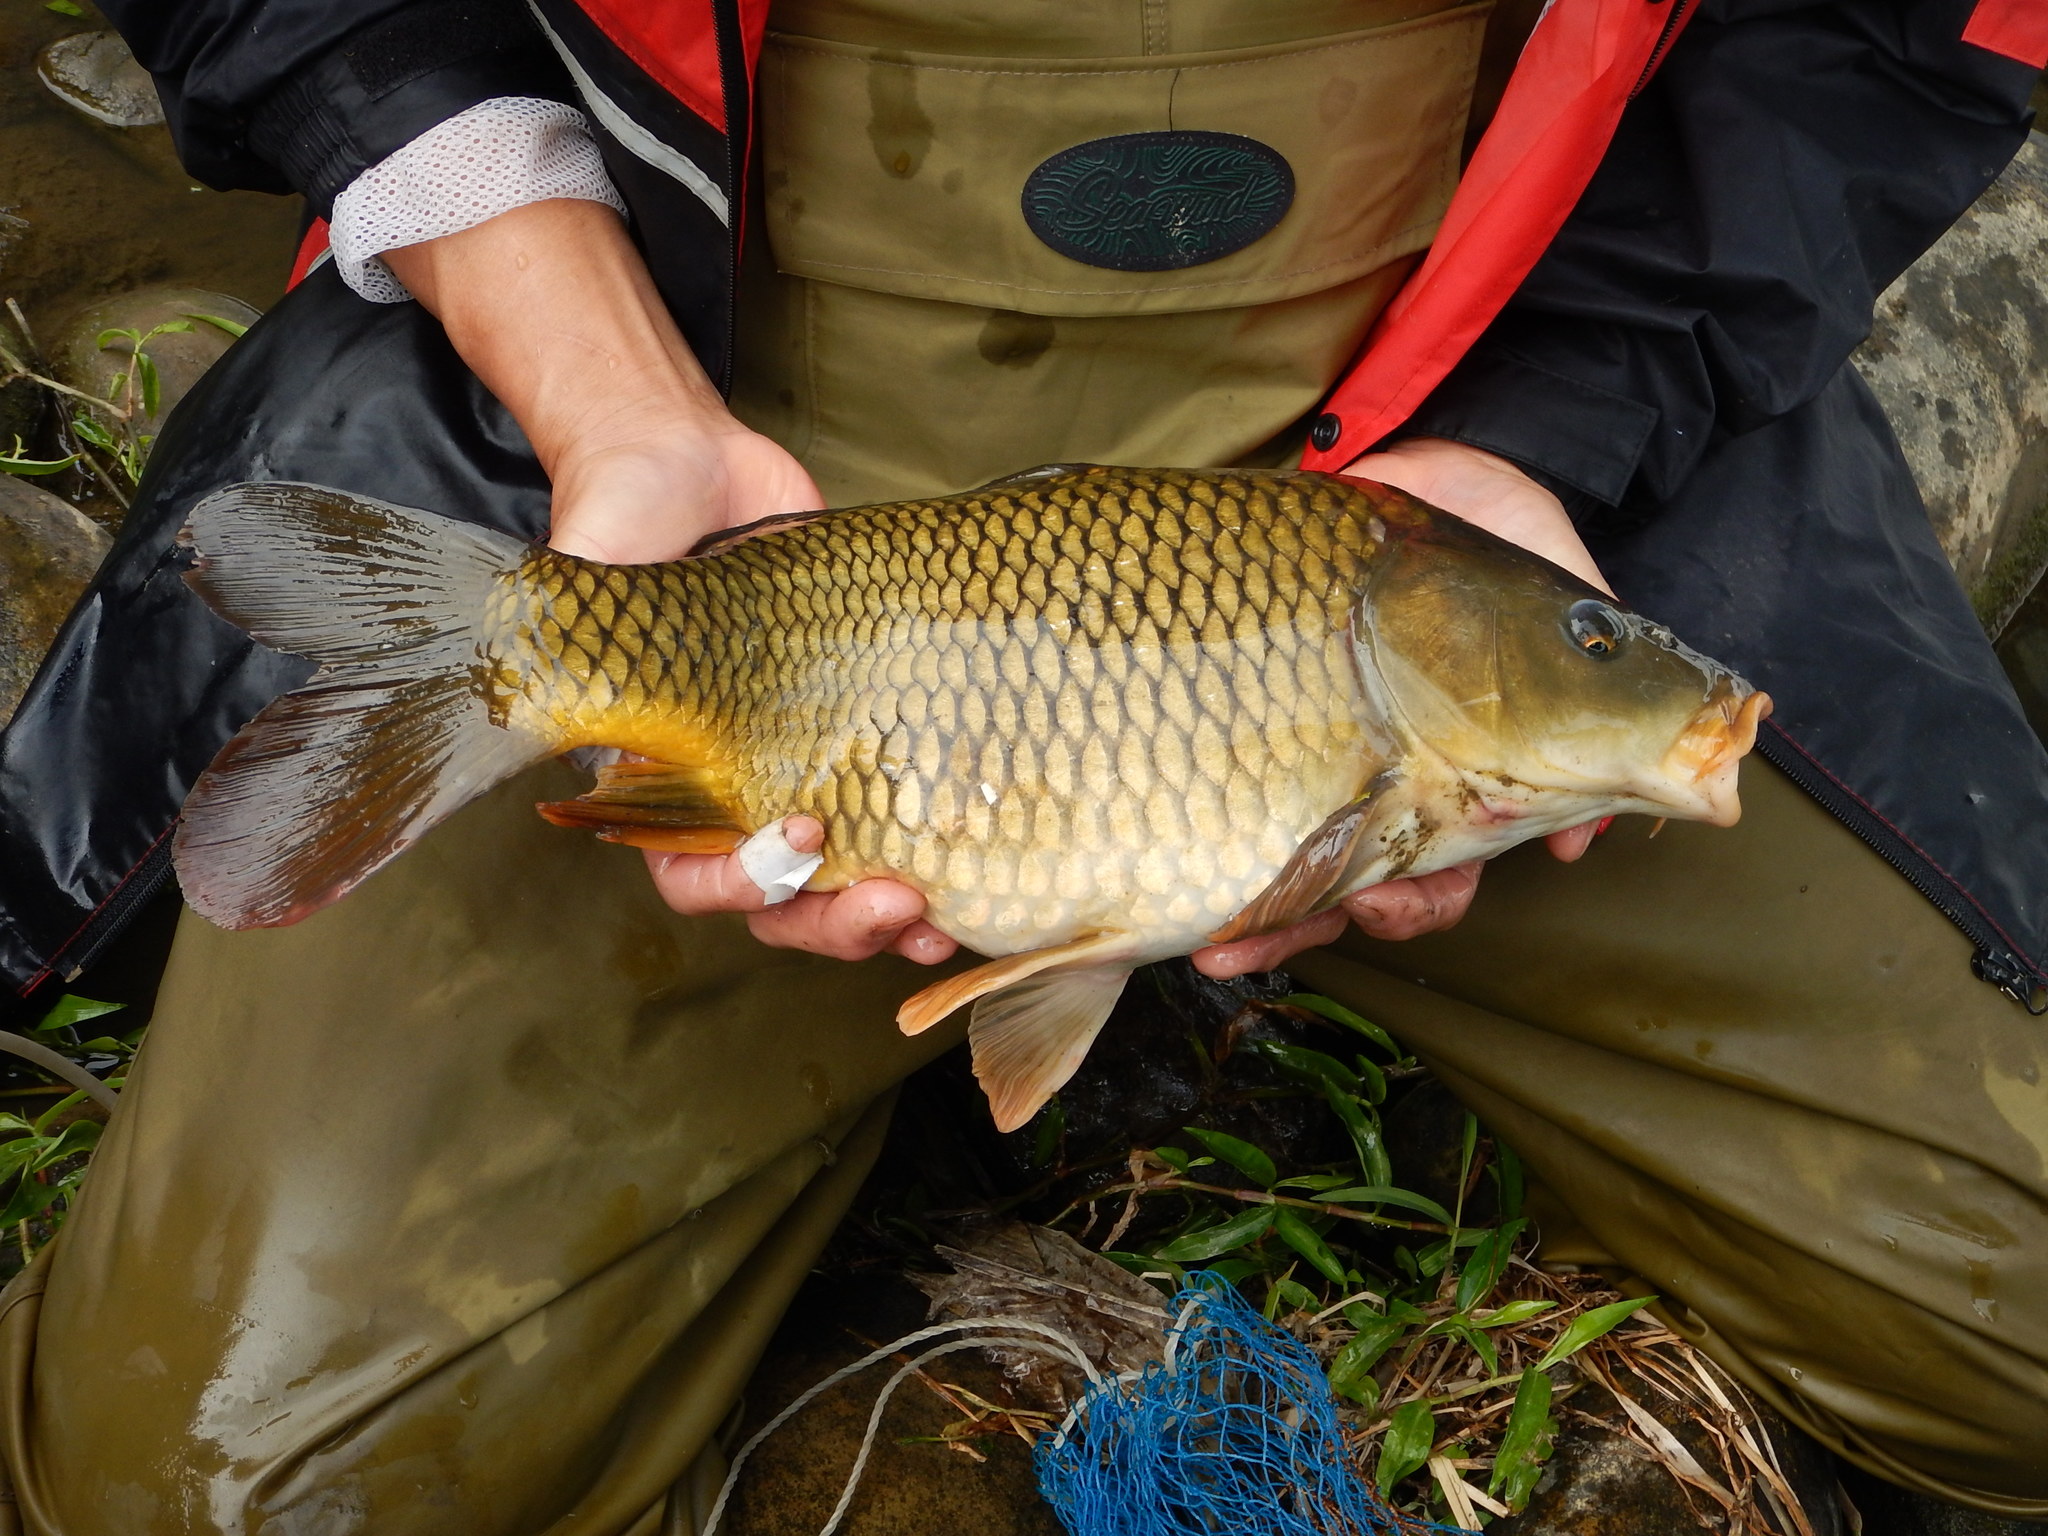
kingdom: Animalia
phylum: Chordata
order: Cypriniformes
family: Cyprinidae
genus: Cyprinus
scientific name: Cyprinus carpio
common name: Common carp
